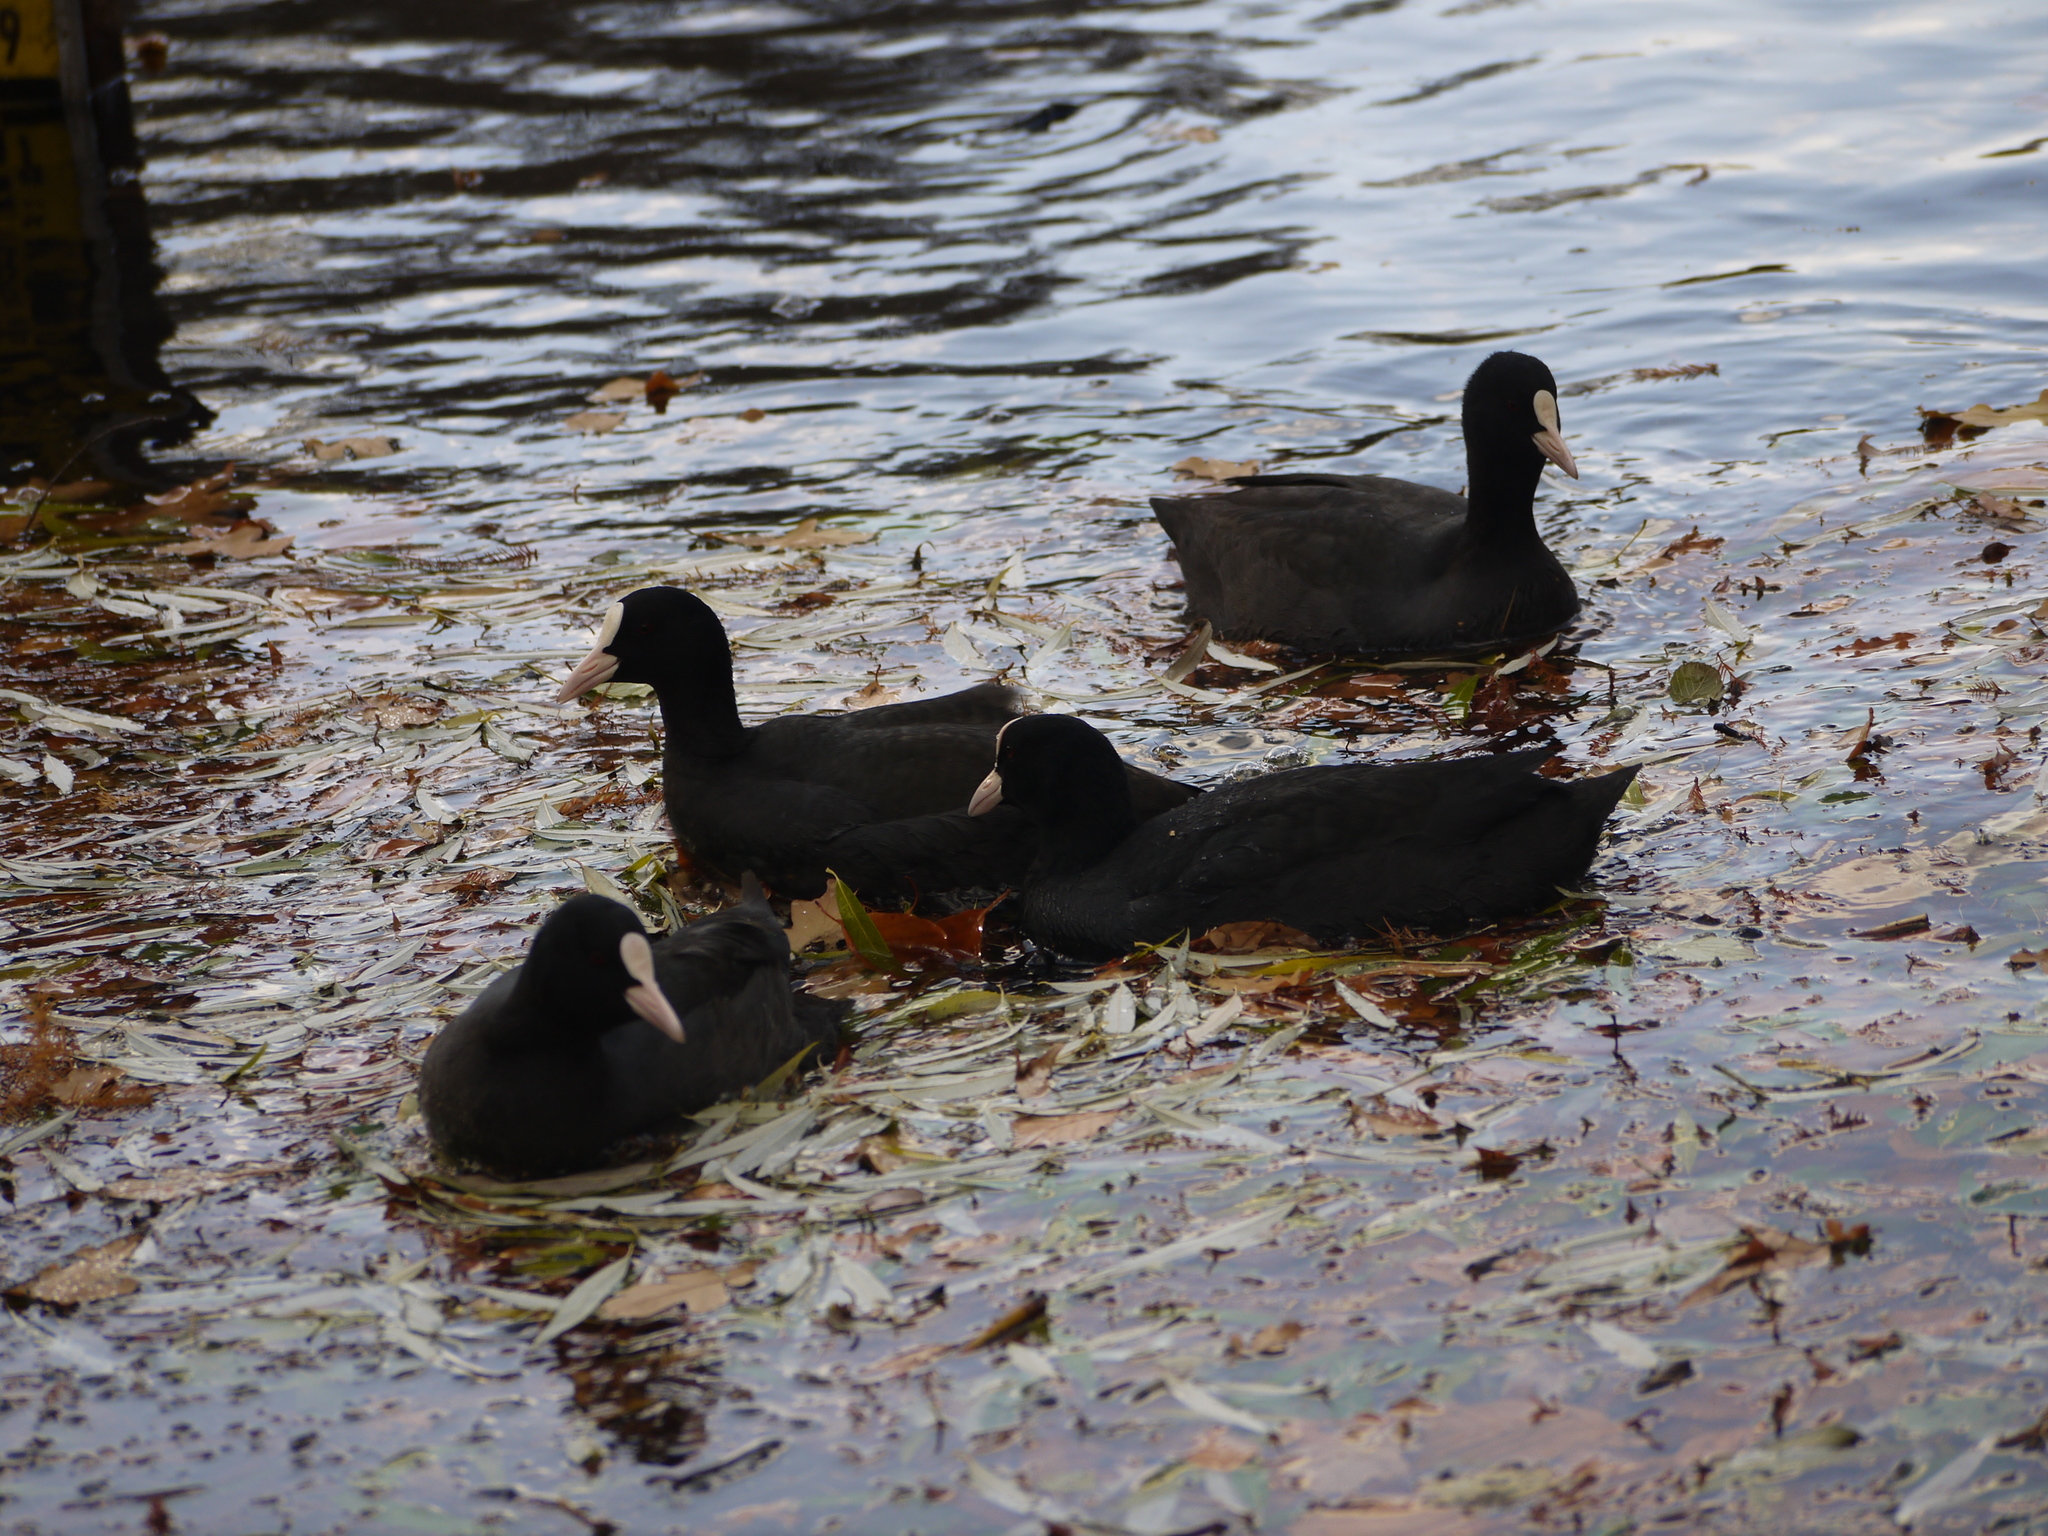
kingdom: Animalia
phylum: Chordata
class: Aves
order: Gruiformes
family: Rallidae
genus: Fulica
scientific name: Fulica atra
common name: Eurasian coot
